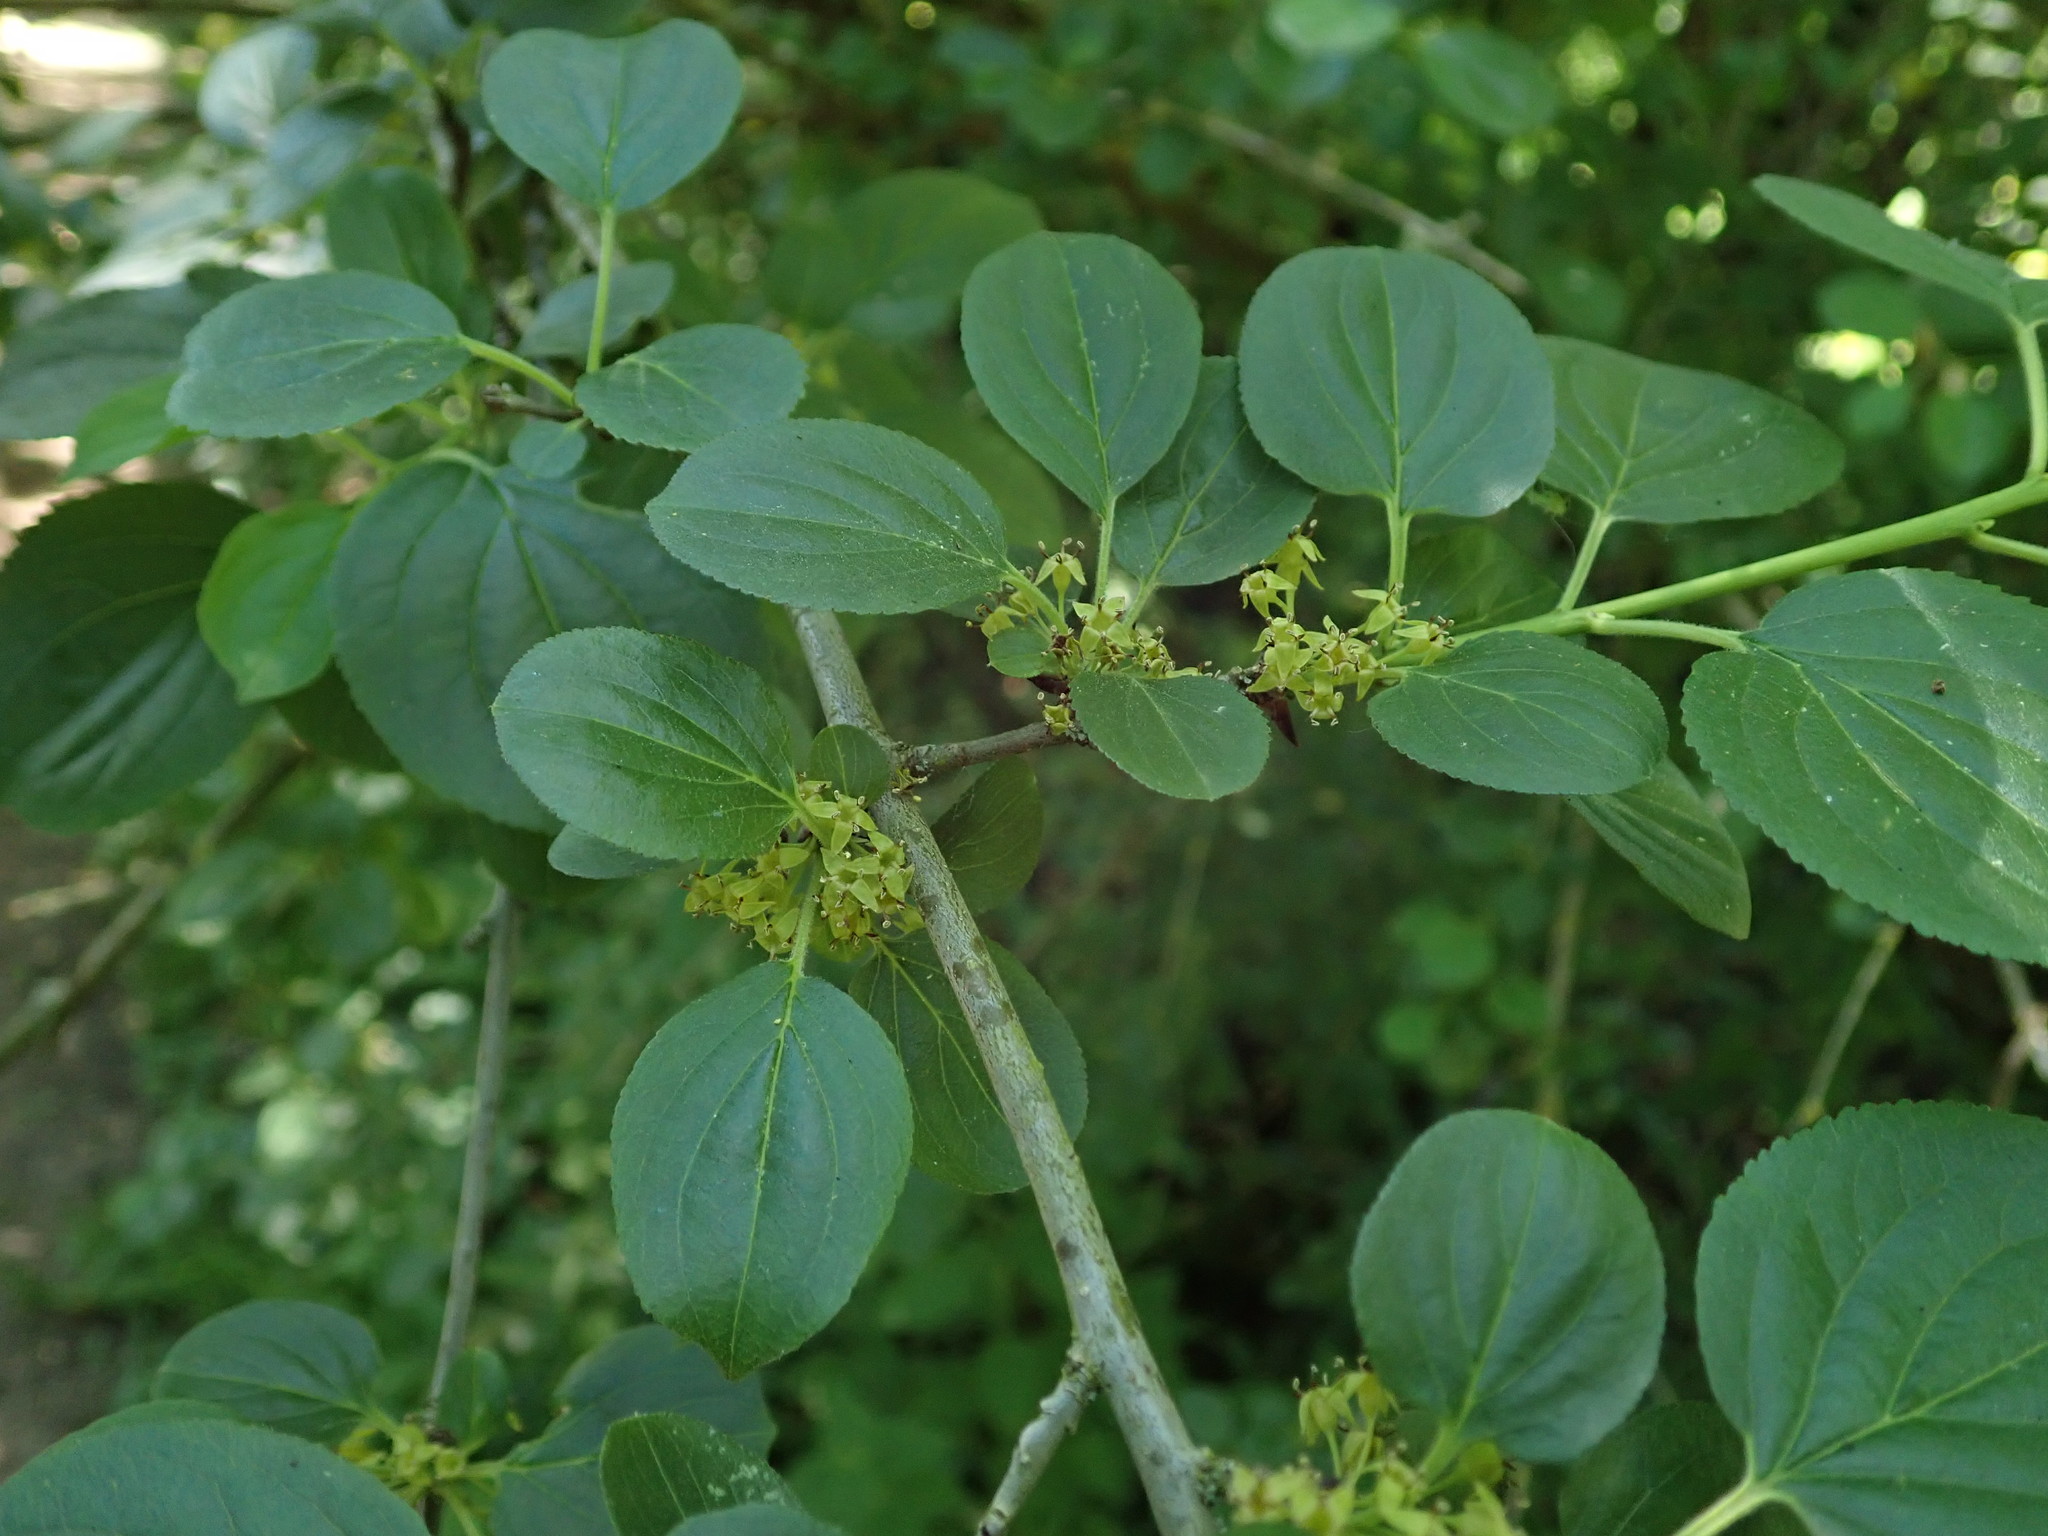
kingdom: Plantae
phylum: Tracheophyta
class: Magnoliopsida
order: Rosales
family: Rhamnaceae
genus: Rhamnus
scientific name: Rhamnus cathartica
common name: Common buckthorn
